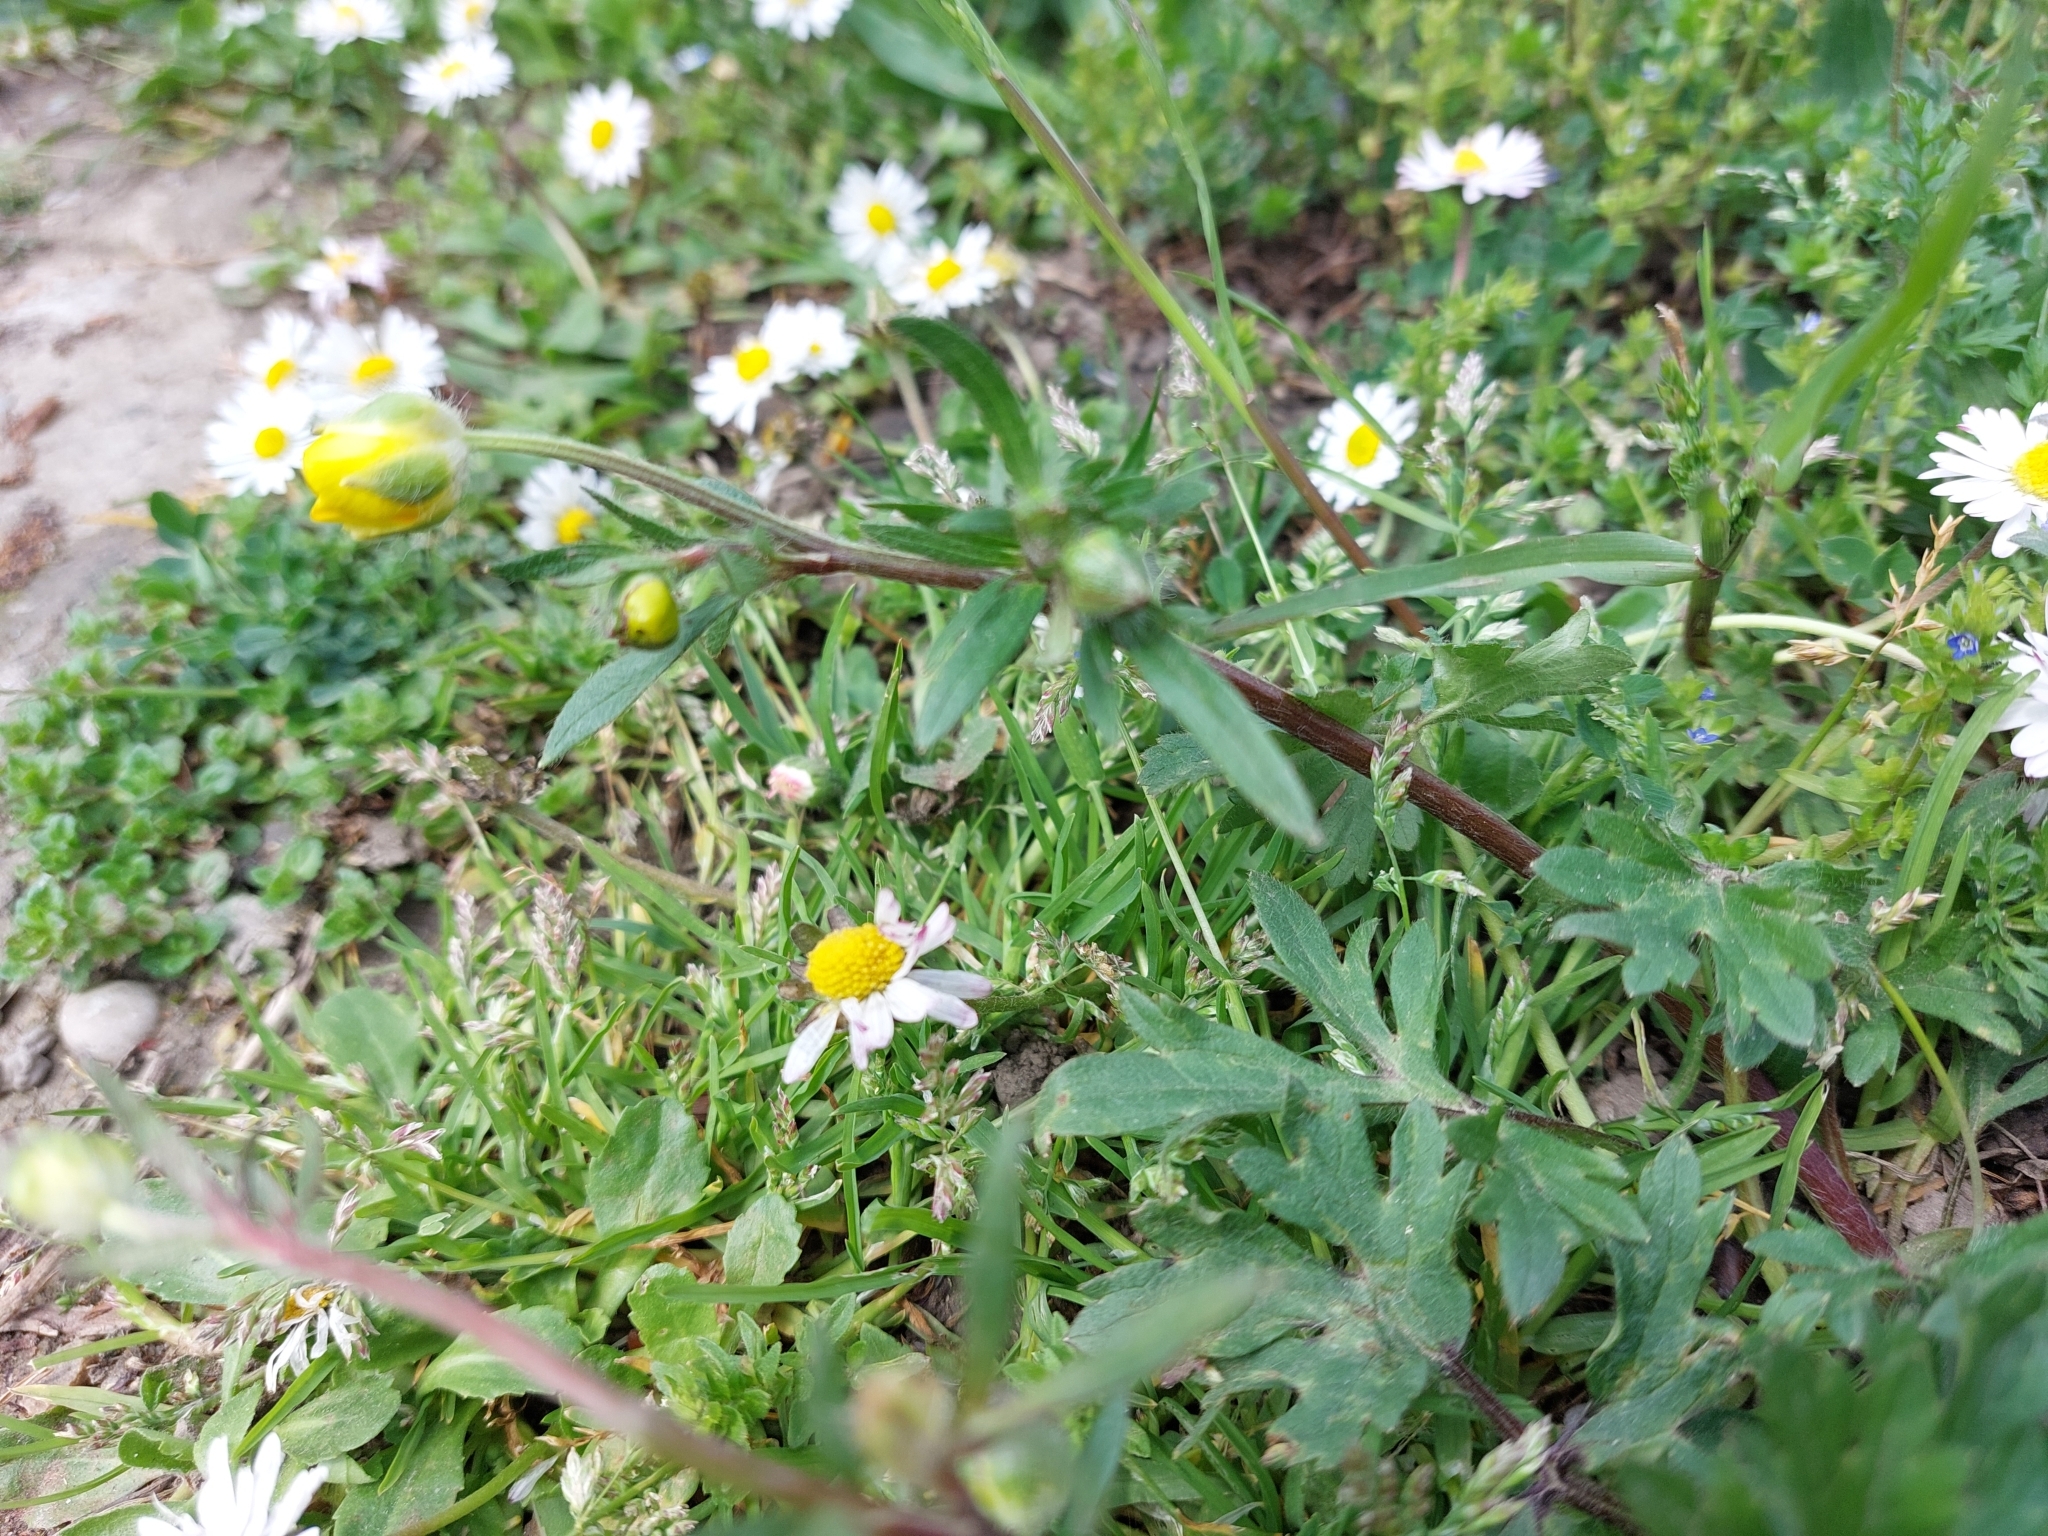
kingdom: Plantae
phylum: Tracheophyta
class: Magnoliopsida
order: Ranunculales
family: Ranunculaceae
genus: Ranunculus
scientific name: Ranunculus bulbosus
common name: Bulbous buttercup
